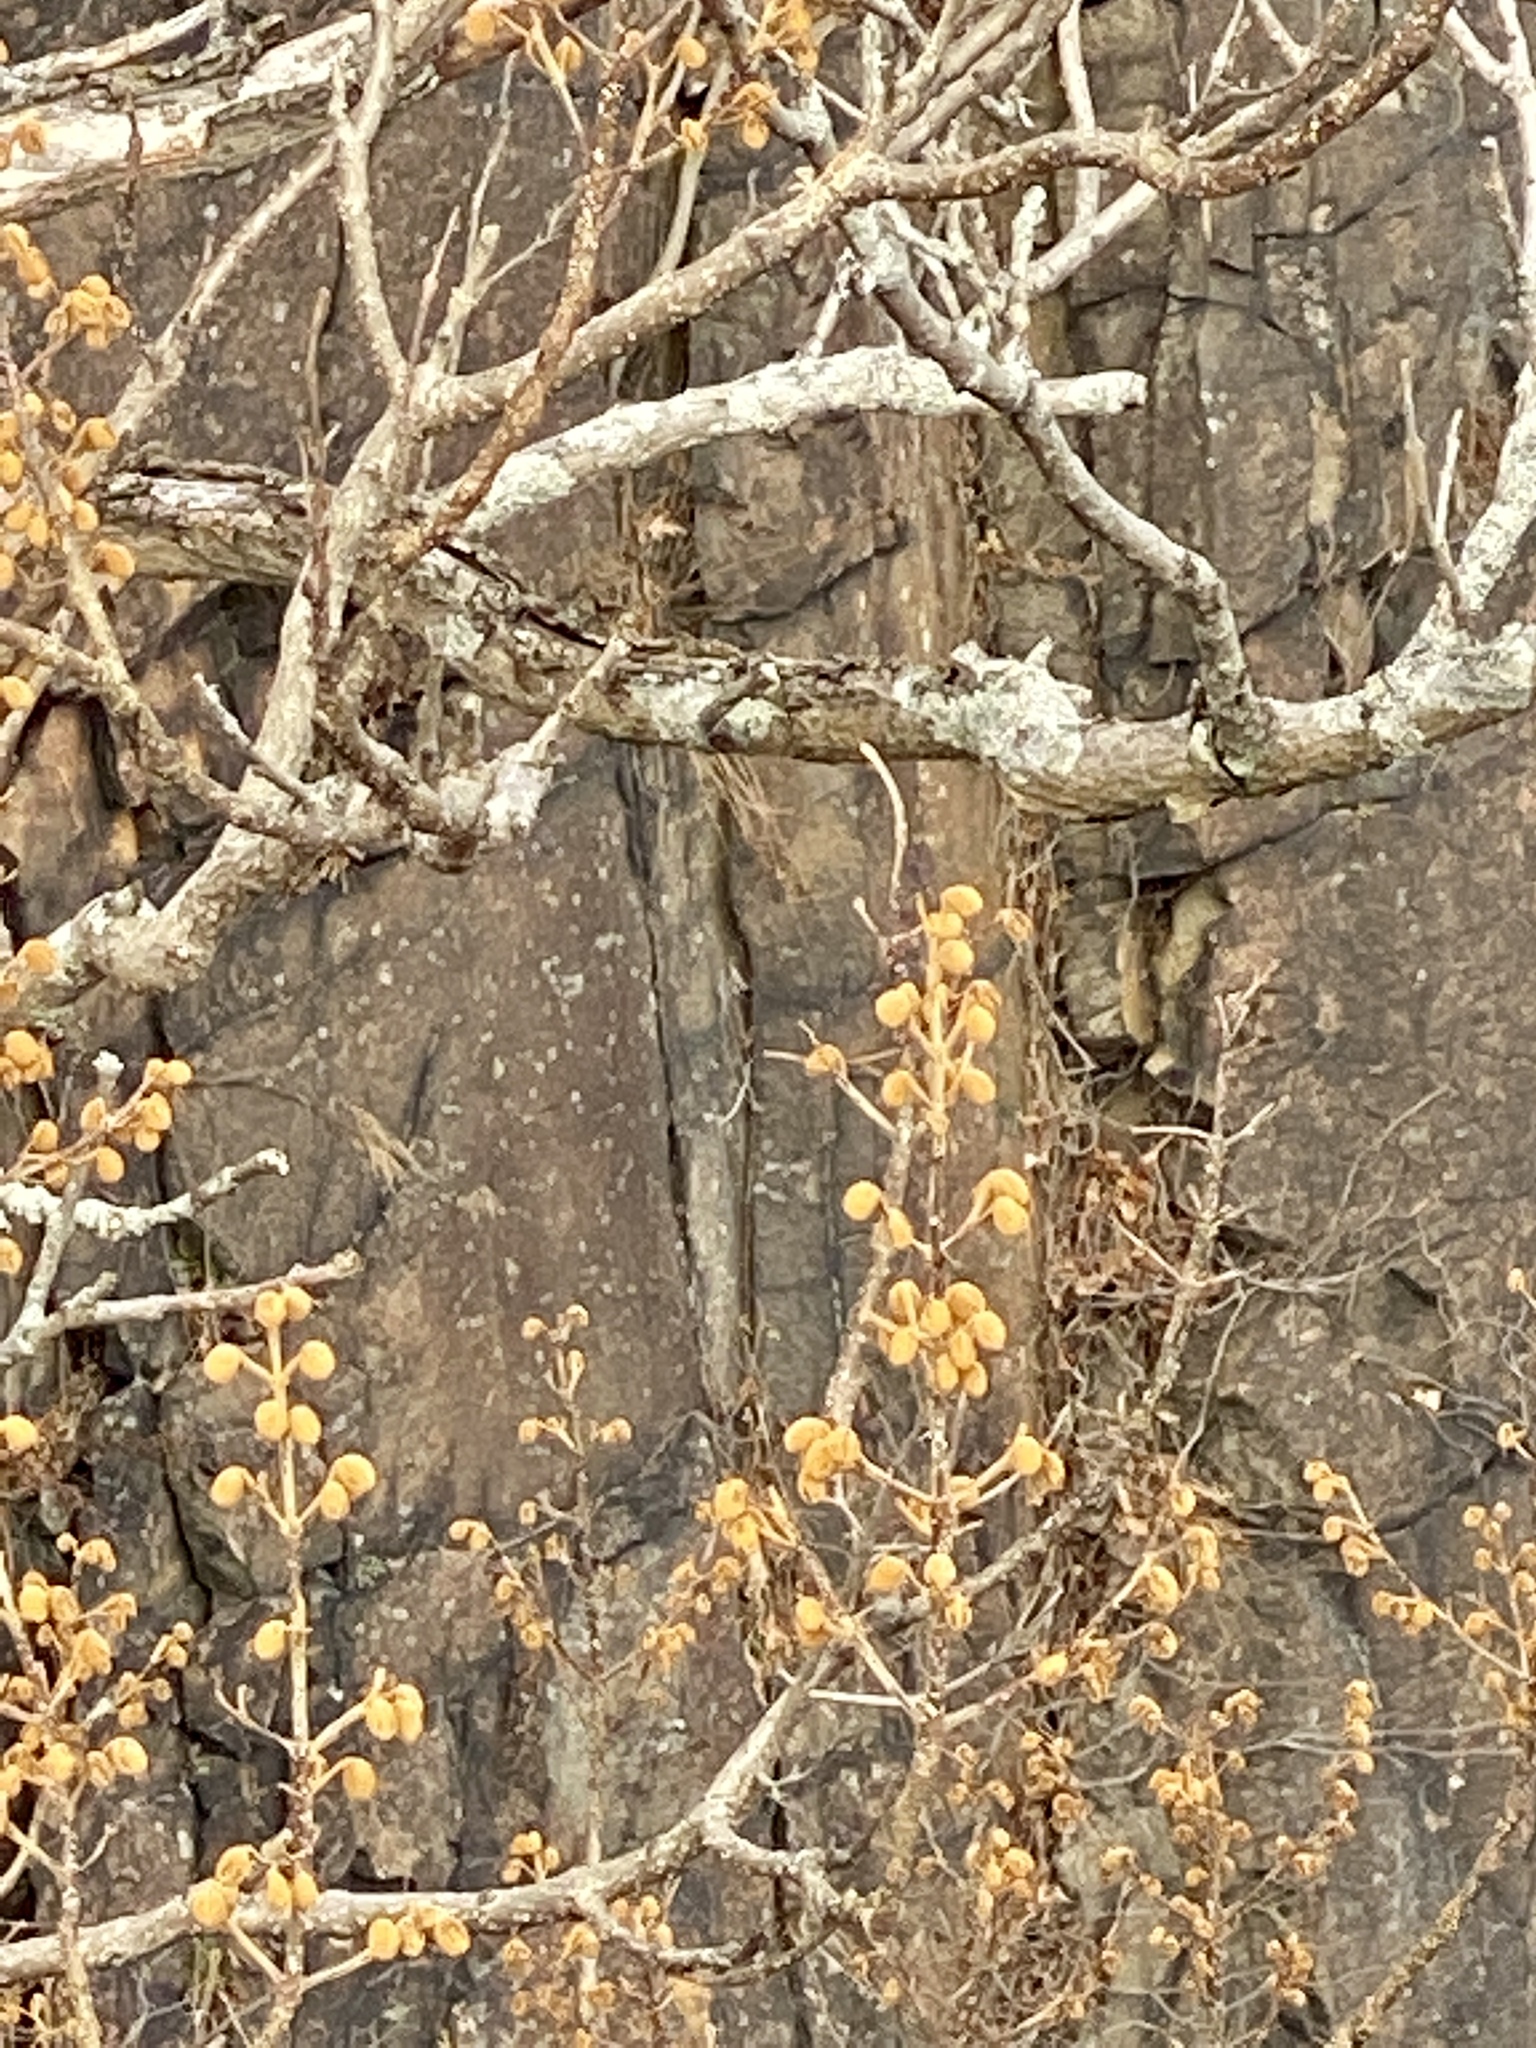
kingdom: Plantae
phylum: Tracheophyta
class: Magnoliopsida
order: Lamiales
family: Paulowniaceae
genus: Paulownia
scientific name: Paulownia tomentosa
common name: Foxglove-tree
